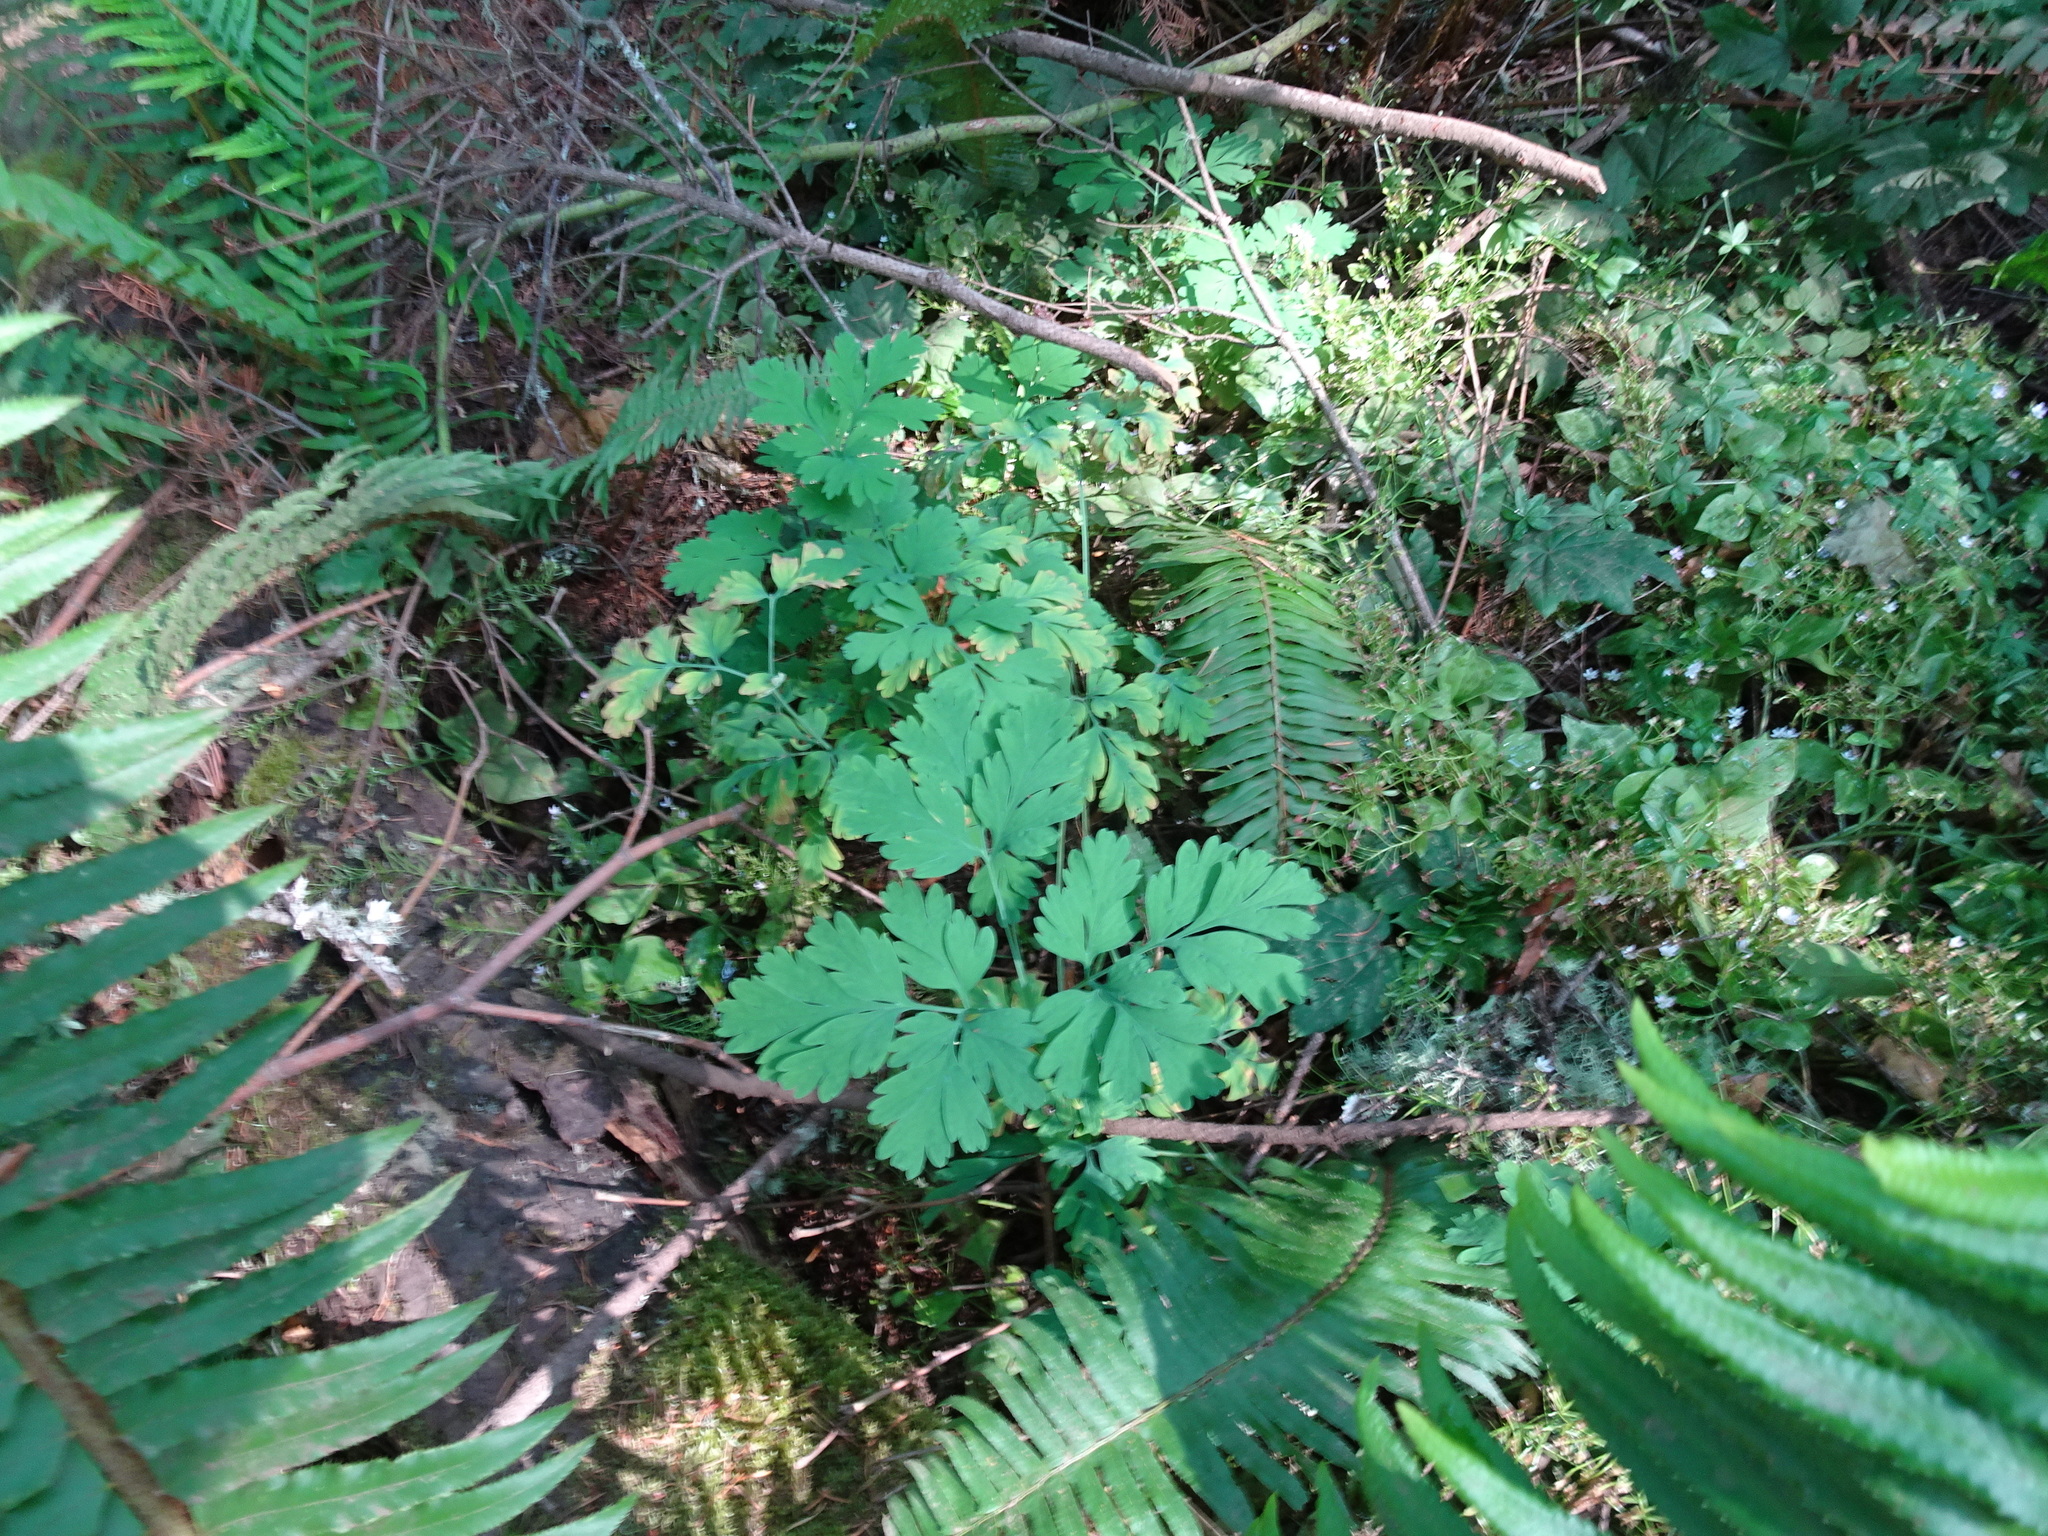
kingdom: Plantae
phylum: Tracheophyta
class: Magnoliopsida
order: Ranunculales
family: Papaveraceae
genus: Dicentra
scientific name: Dicentra formosa
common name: Bleeding-heart
